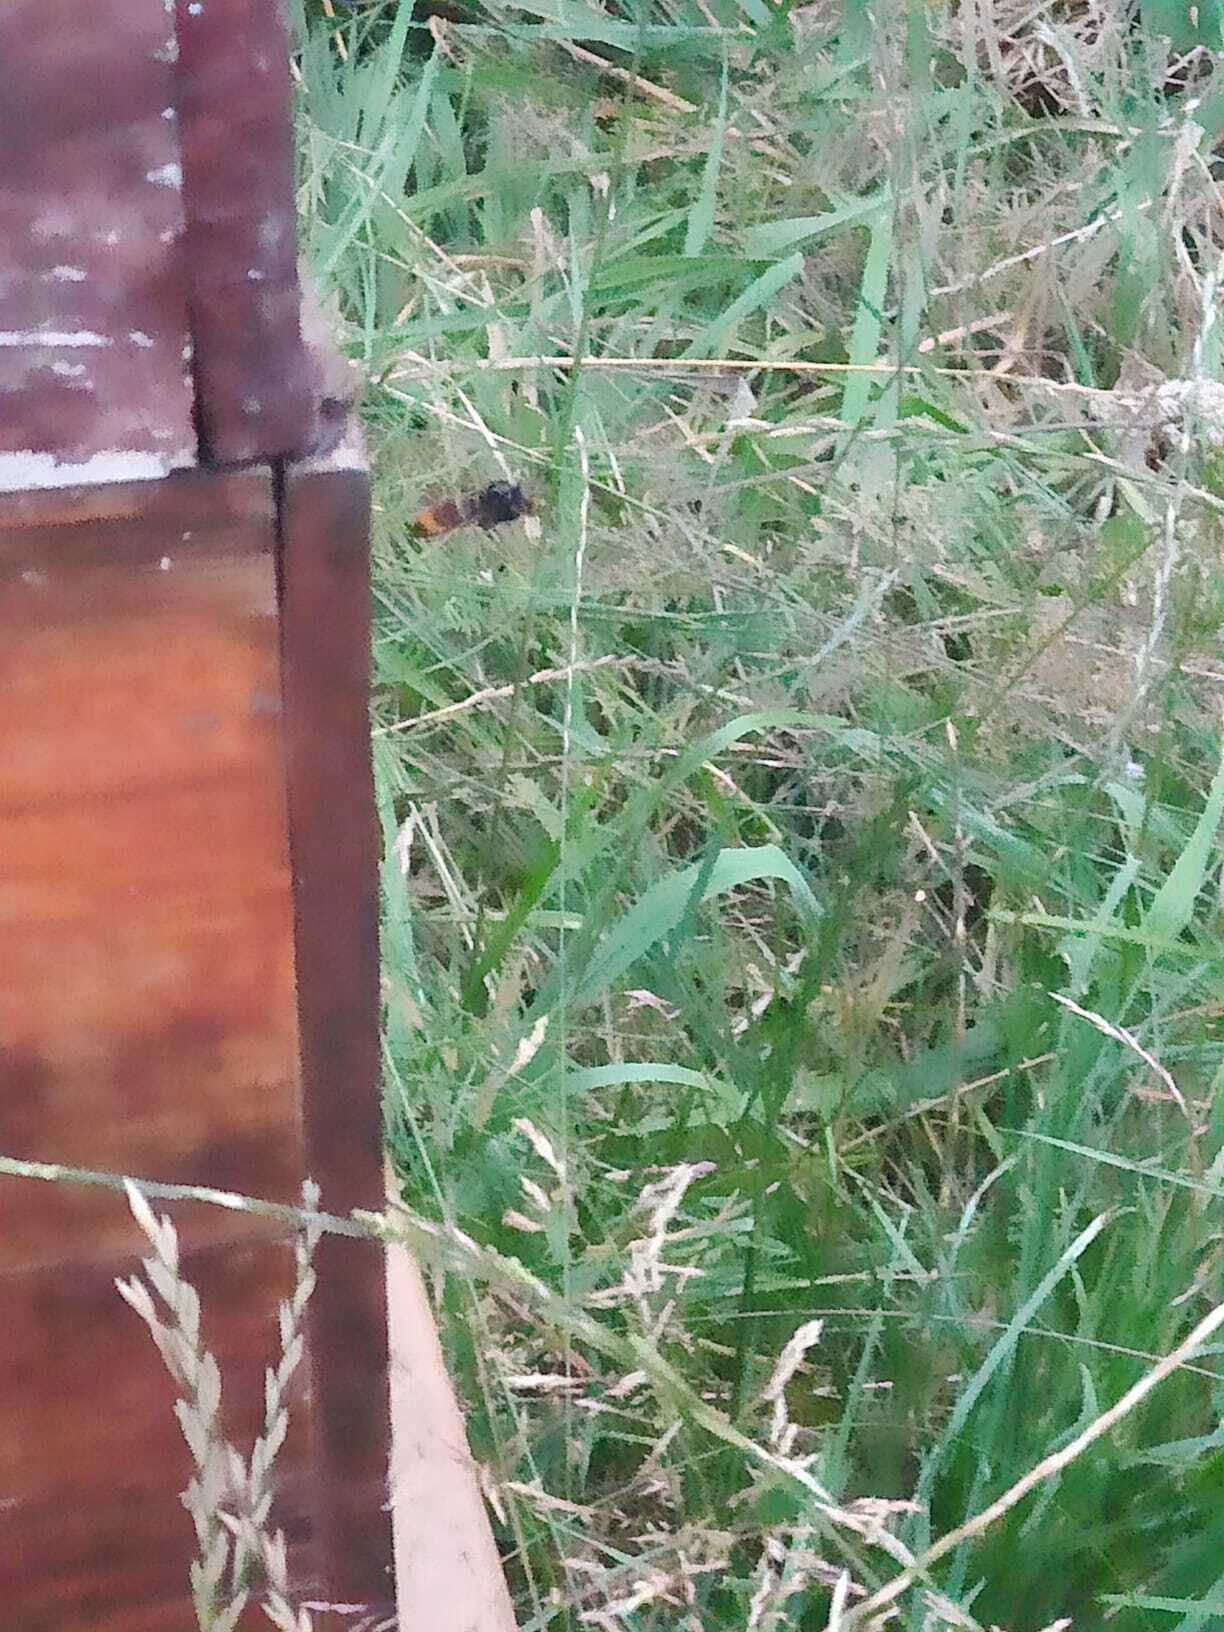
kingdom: Animalia
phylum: Arthropoda
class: Insecta
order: Hymenoptera
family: Vespidae
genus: Vespa
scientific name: Vespa velutina
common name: Asian hornet
